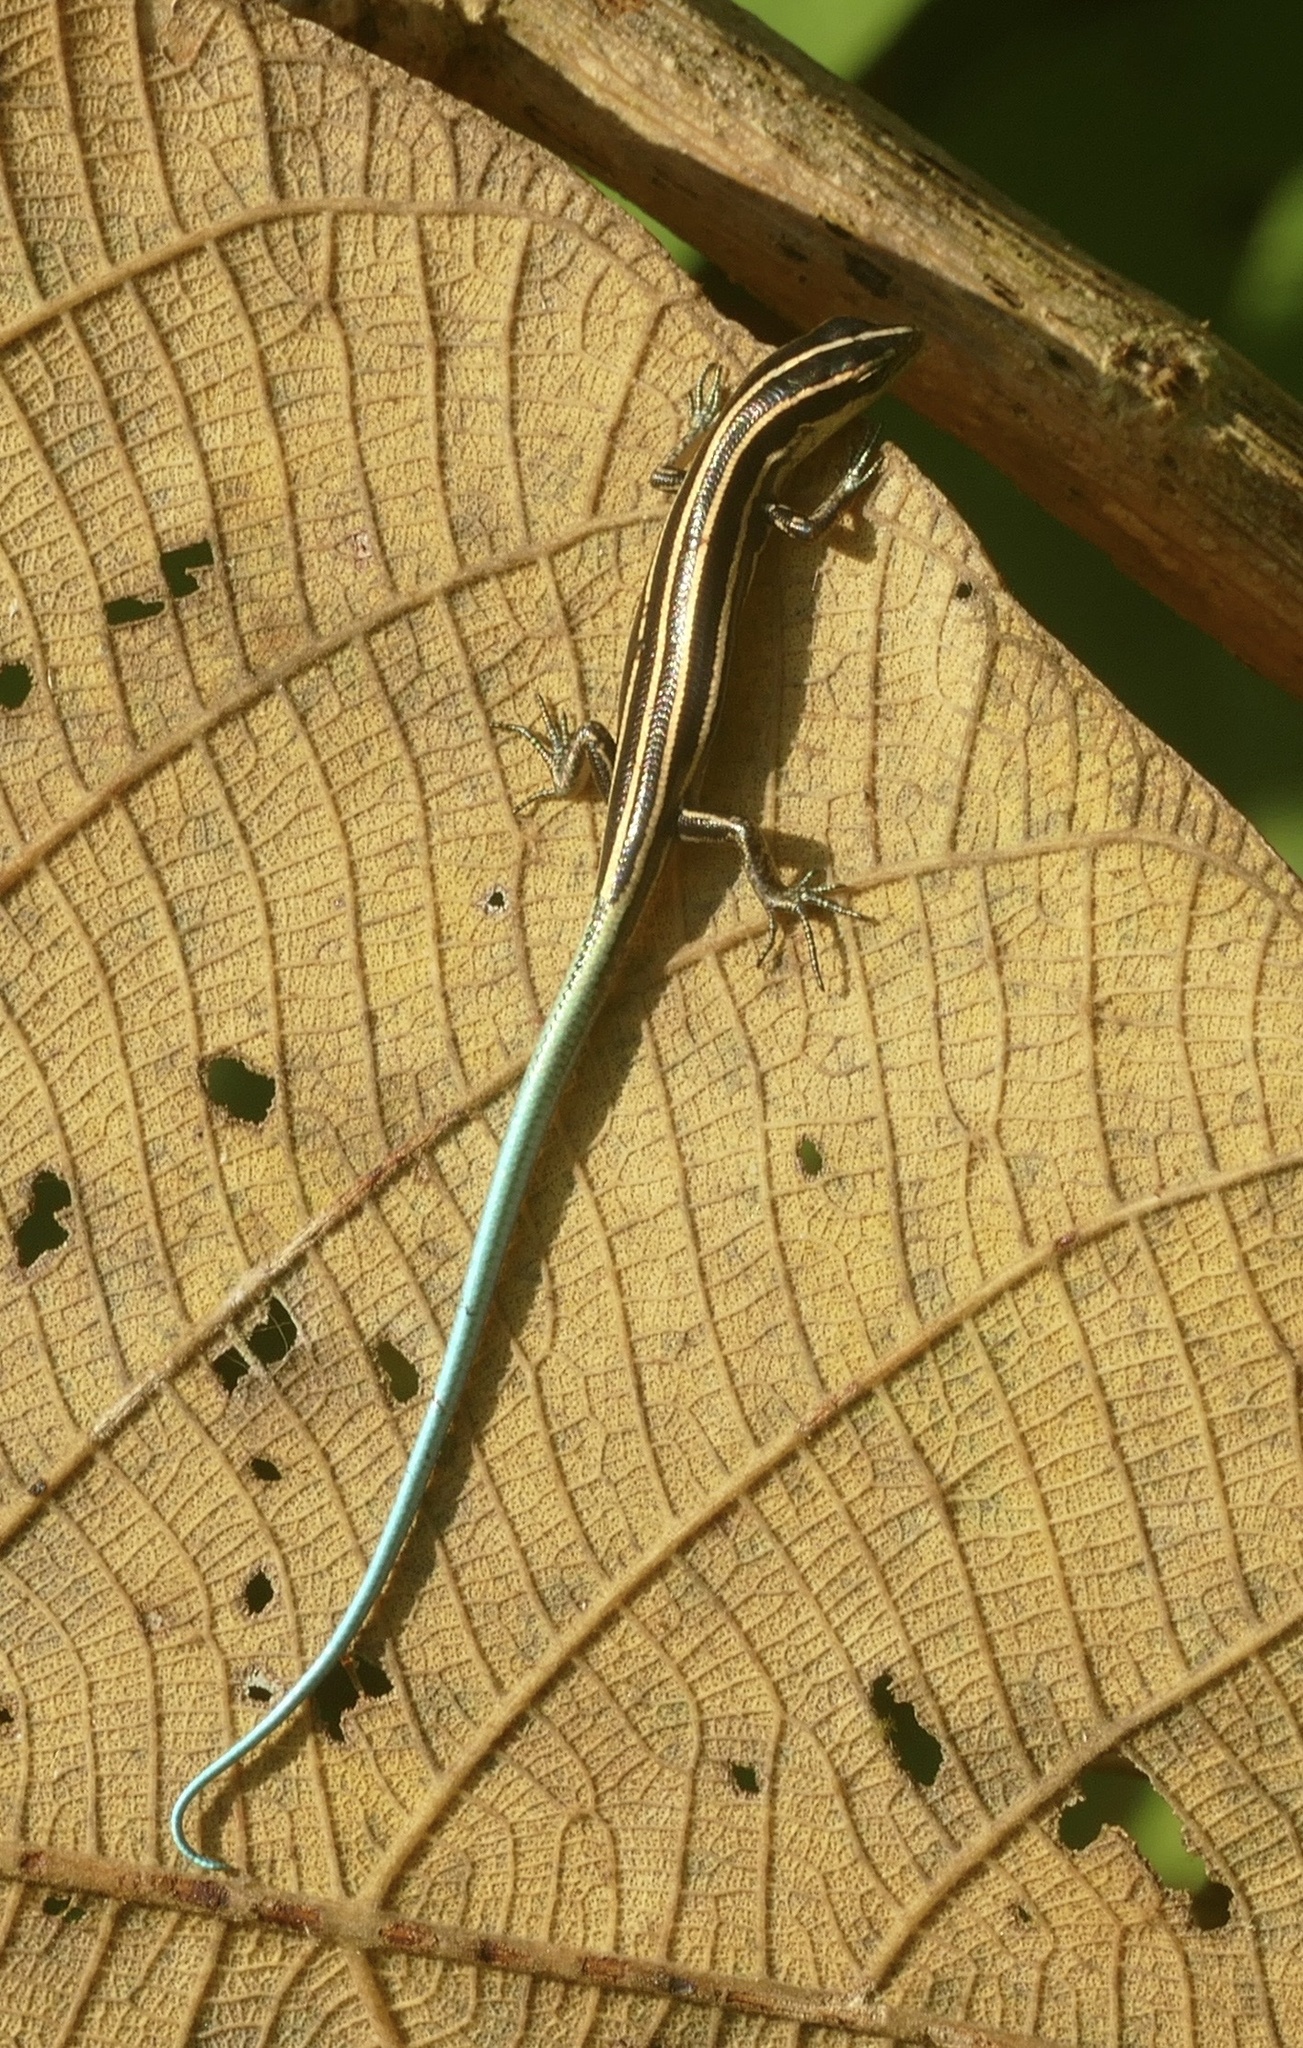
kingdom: Animalia
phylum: Chordata
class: Squamata
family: Scincidae
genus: Emoia
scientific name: Emoia caeruleocauda
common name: Pacific bluetail skink
